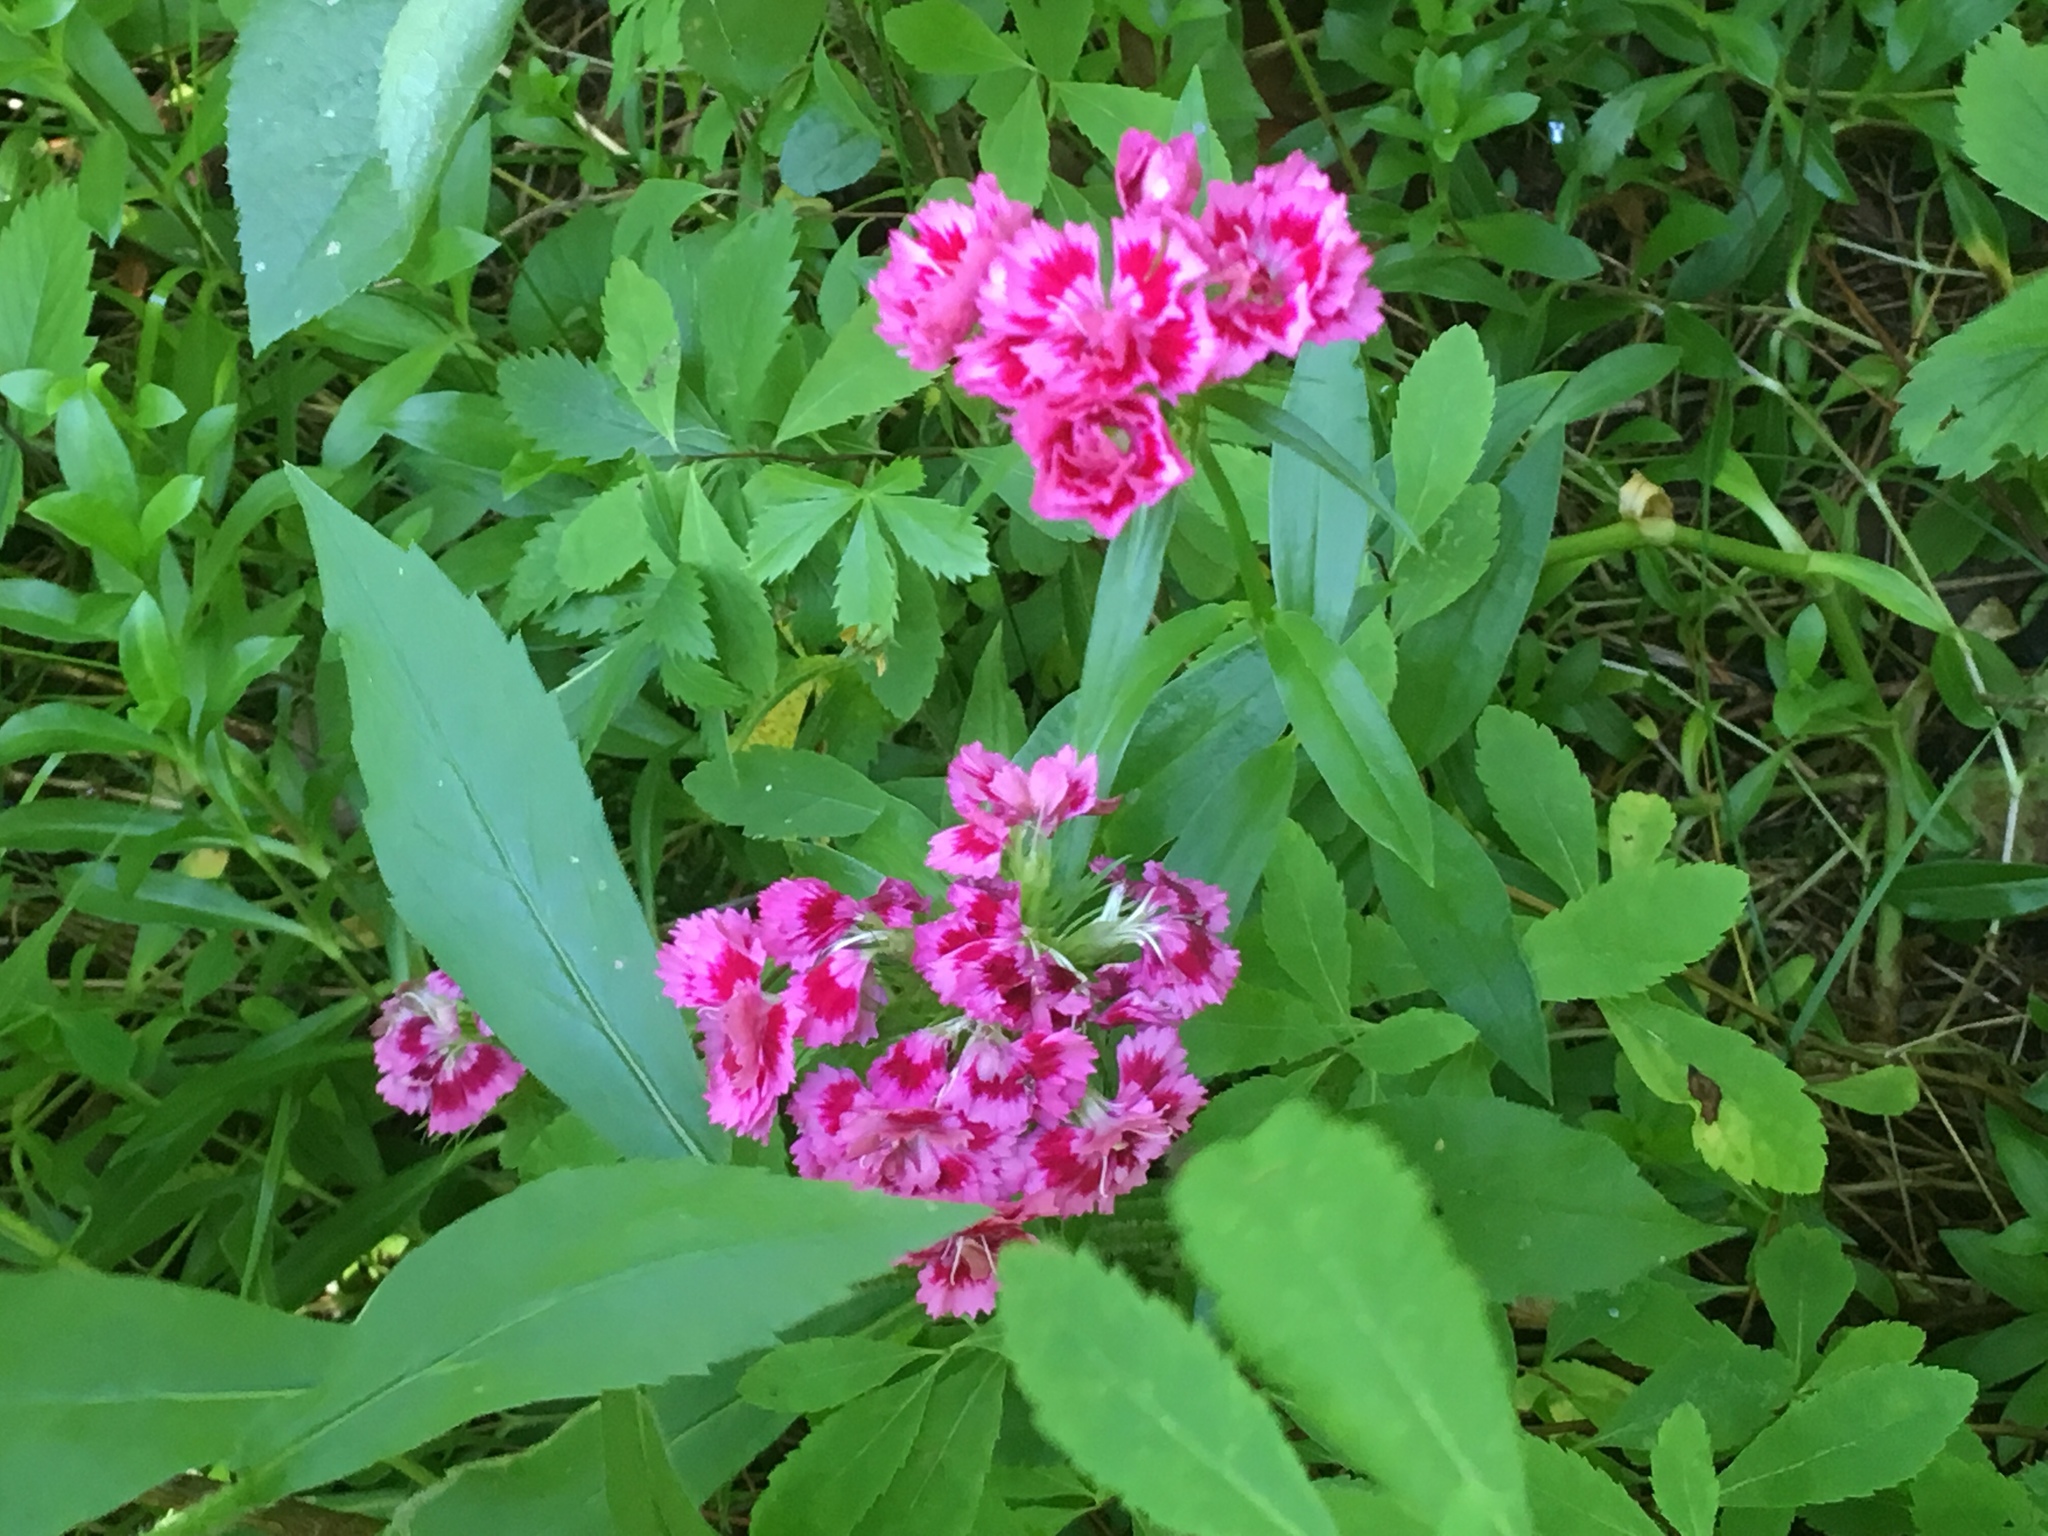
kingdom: Plantae
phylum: Tracheophyta
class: Magnoliopsida
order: Caryophyllales
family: Caryophyllaceae
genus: Dianthus
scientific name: Dianthus barbatus
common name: Sweet-william
